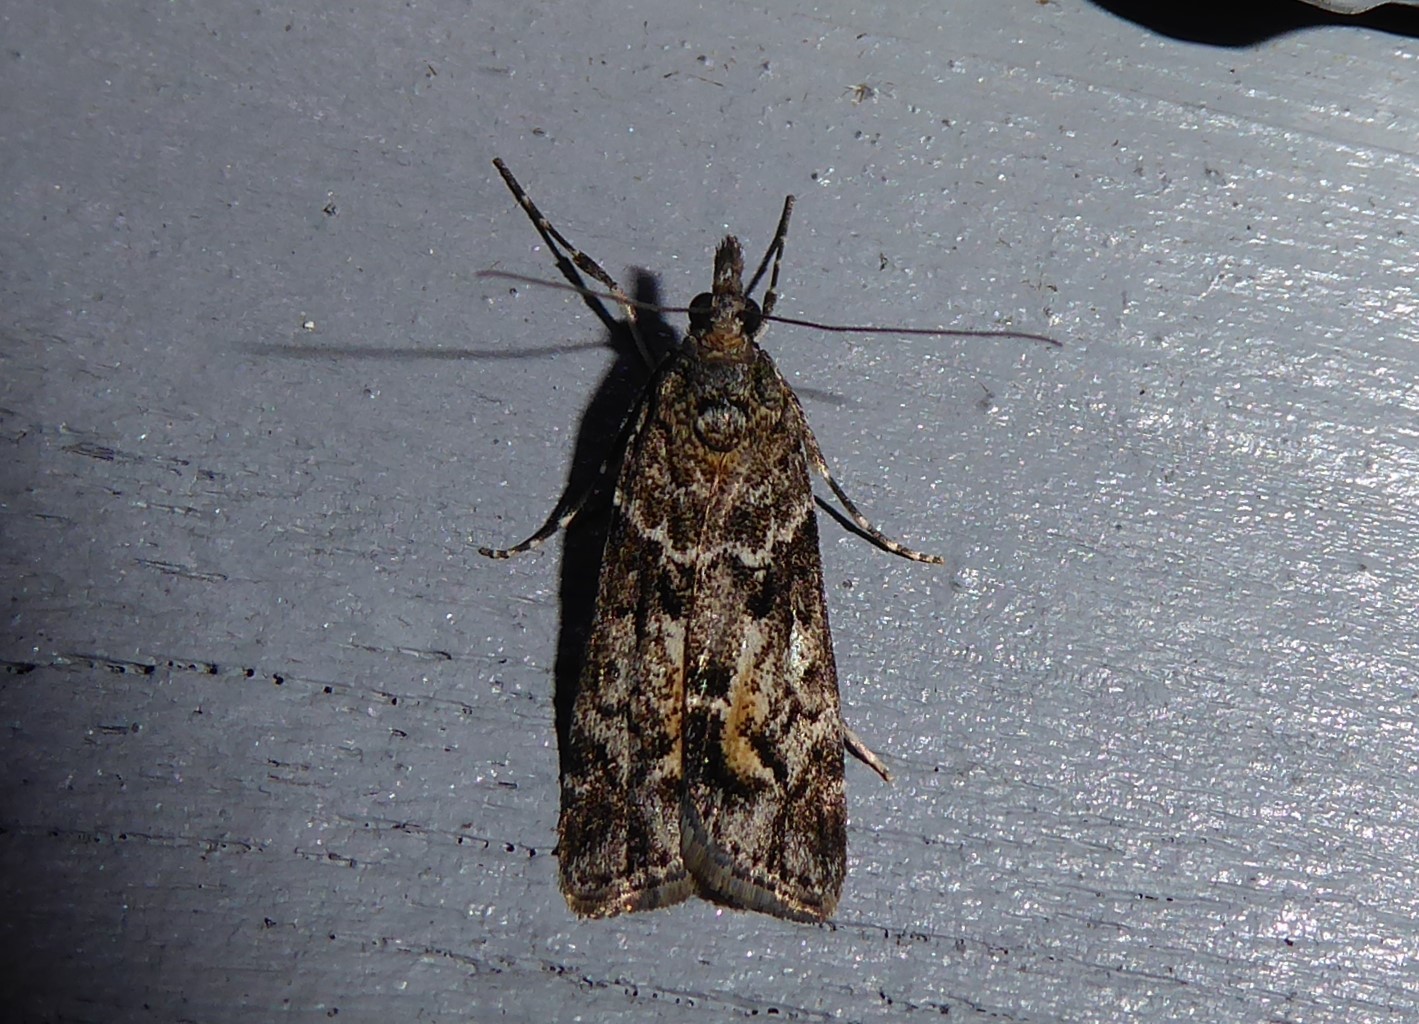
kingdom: Animalia
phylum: Arthropoda
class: Insecta
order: Lepidoptera
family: Crambidae
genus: Eudonia
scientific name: Eudonia submarginalis
